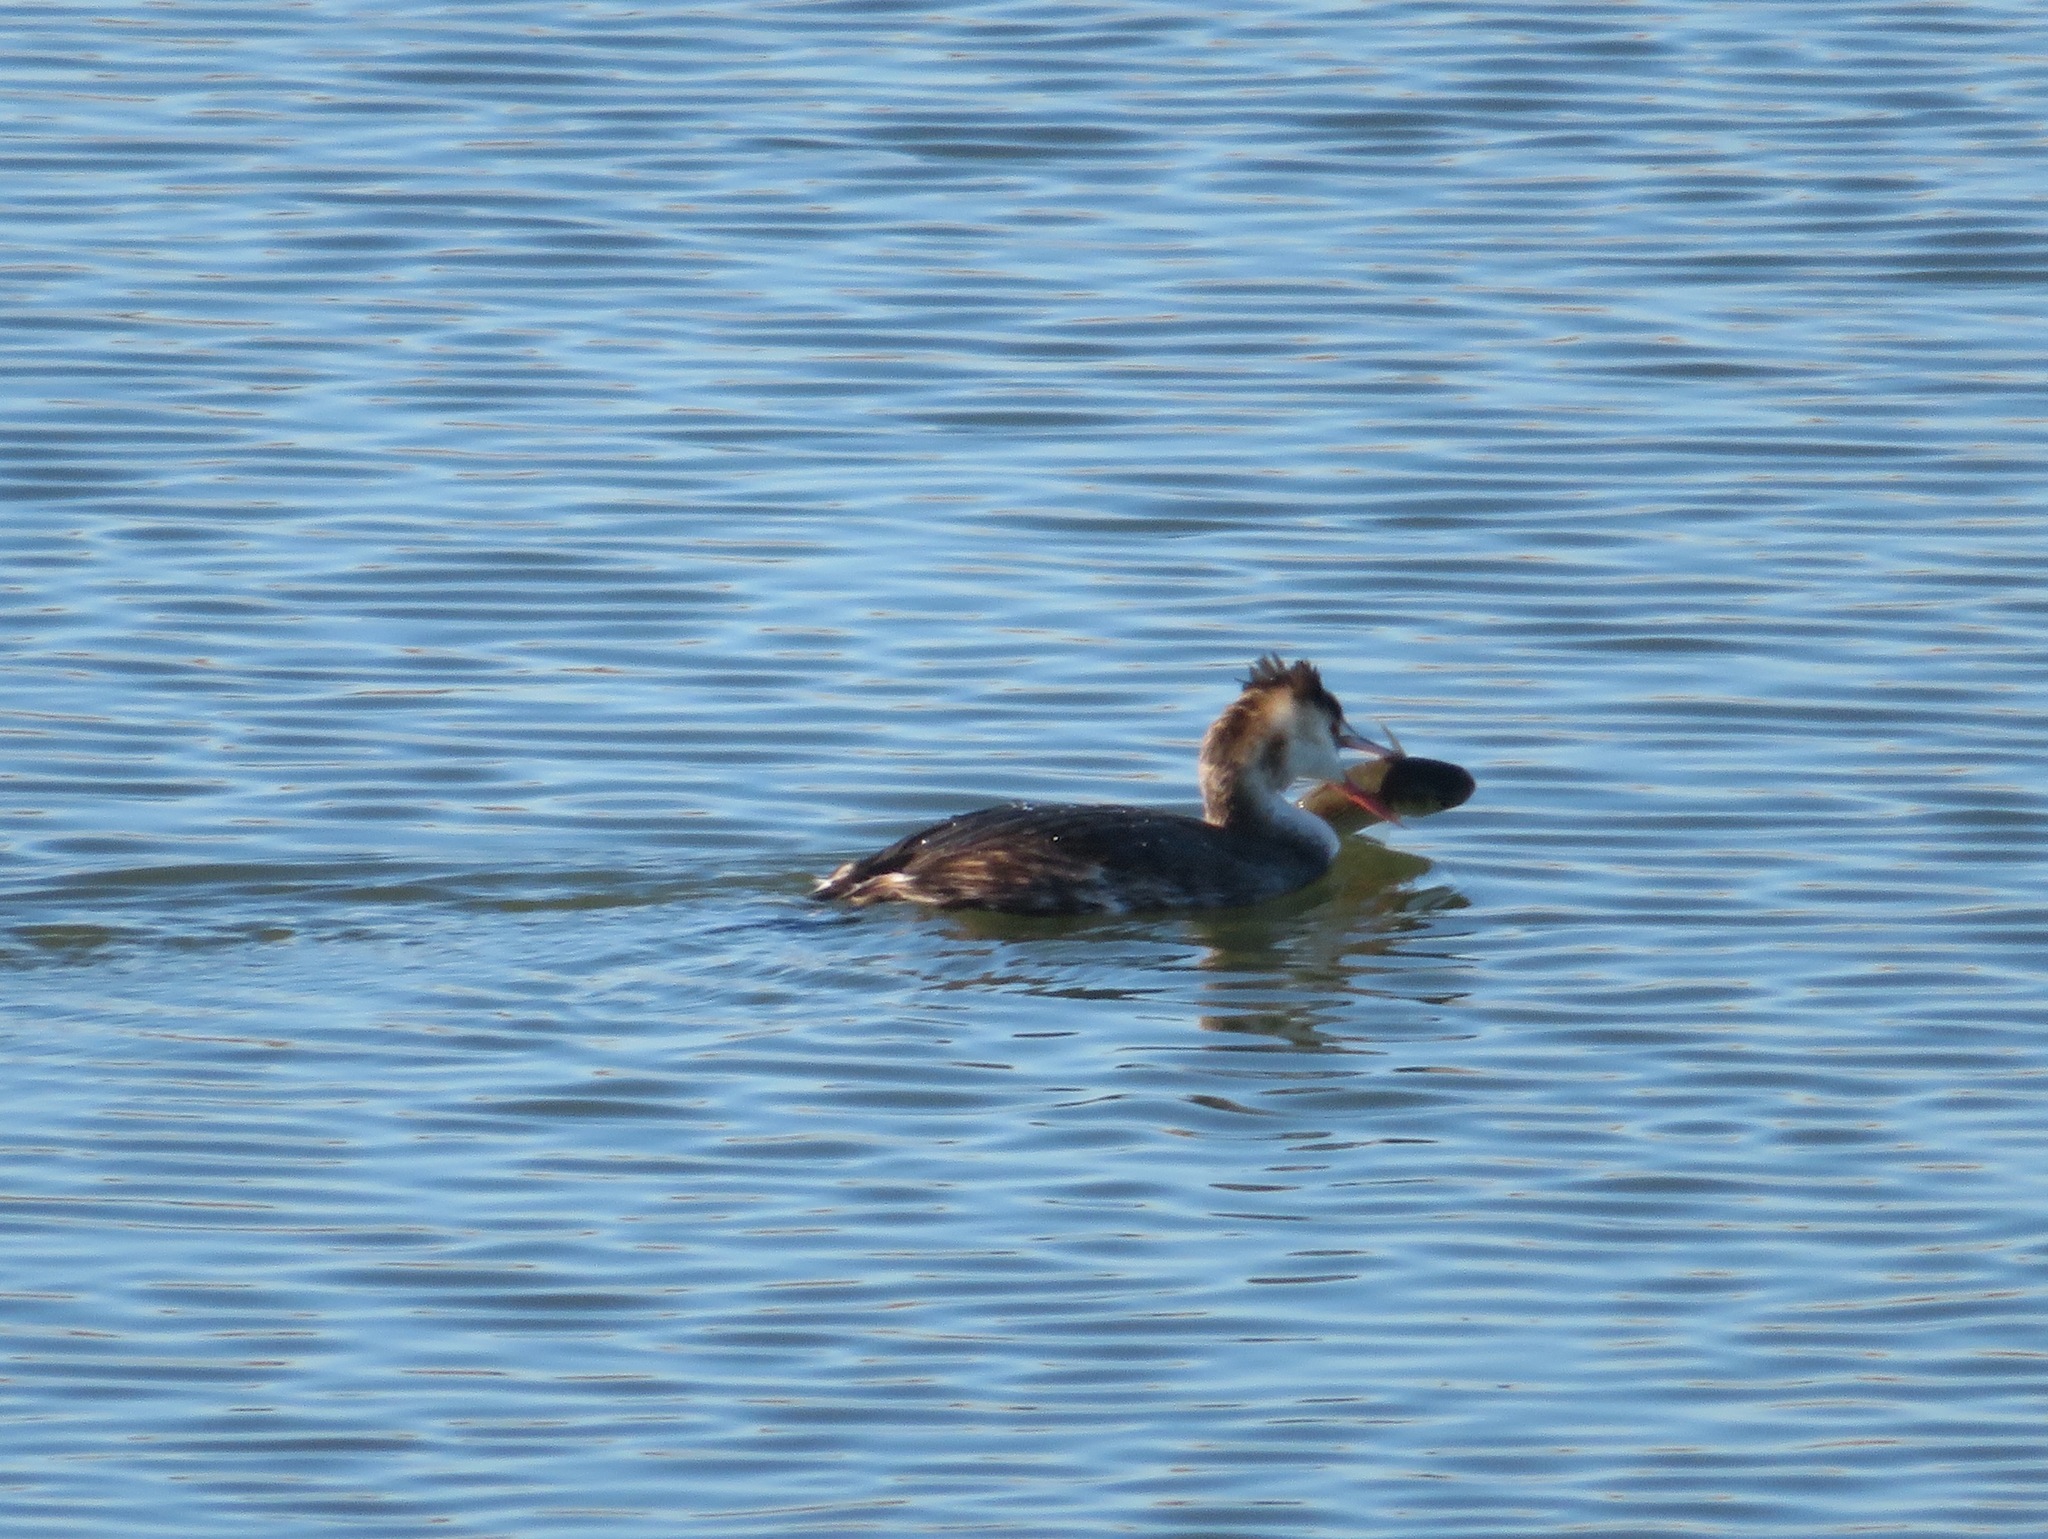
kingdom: Animalia
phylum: Chordata
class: Aves
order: Podicipediformes
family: Podicipedidae
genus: Podiceps
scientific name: Podiceps cristatus
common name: Great crested grebe
